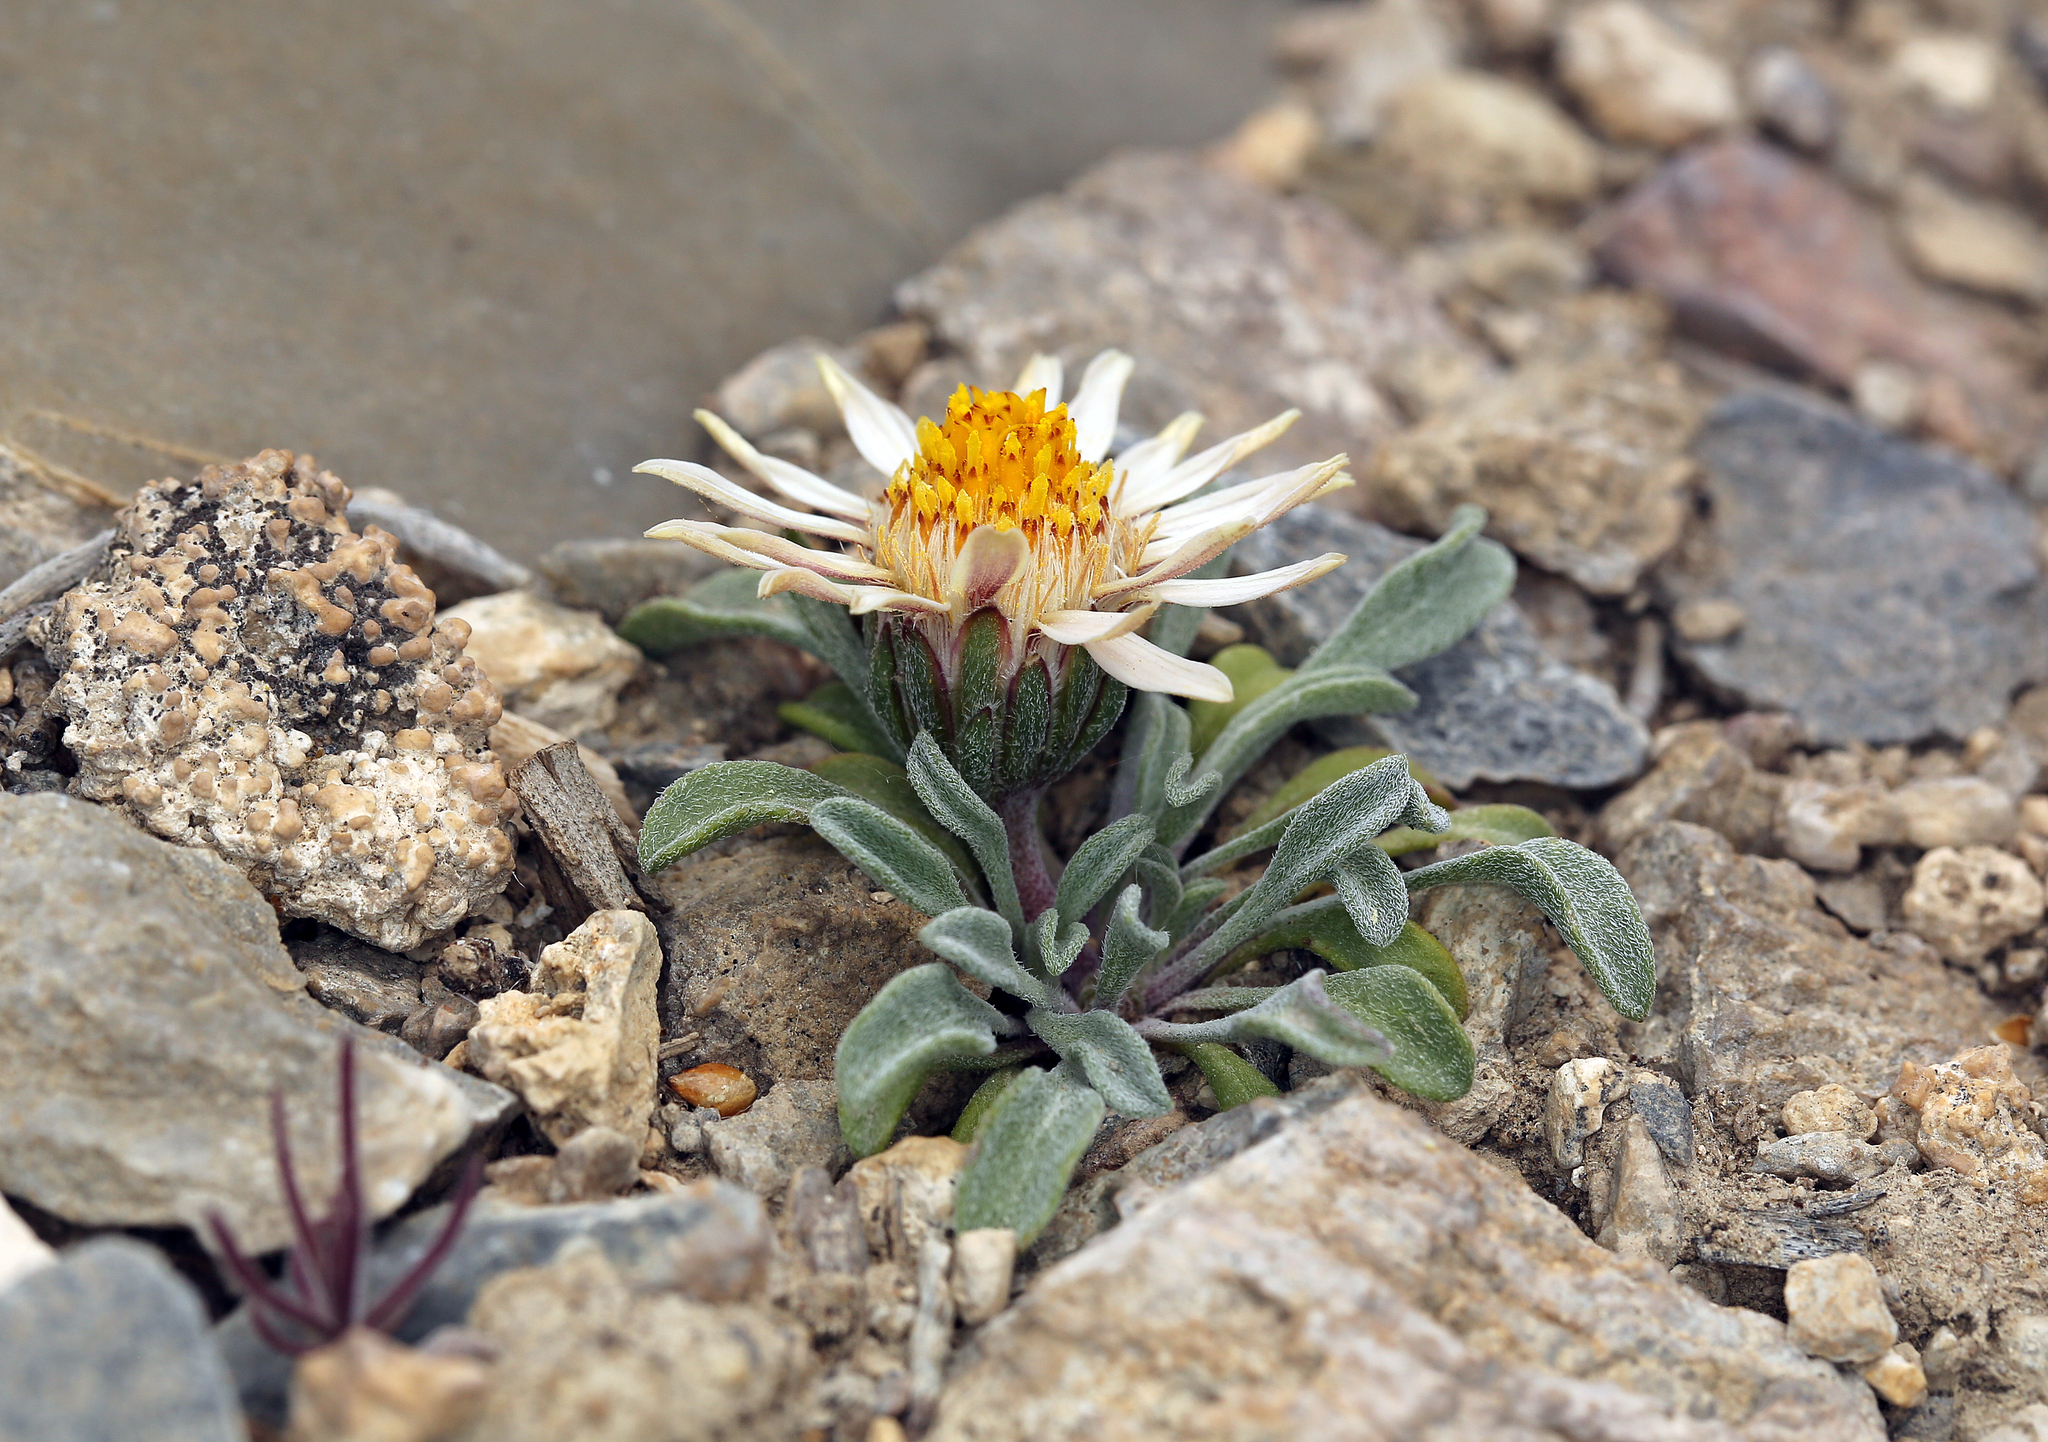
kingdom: Plantae
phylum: Tracheophyta
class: Magnoliopsida
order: Asterales
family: Asteraceae
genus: Townsendia
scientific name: Townsendia scapigera
